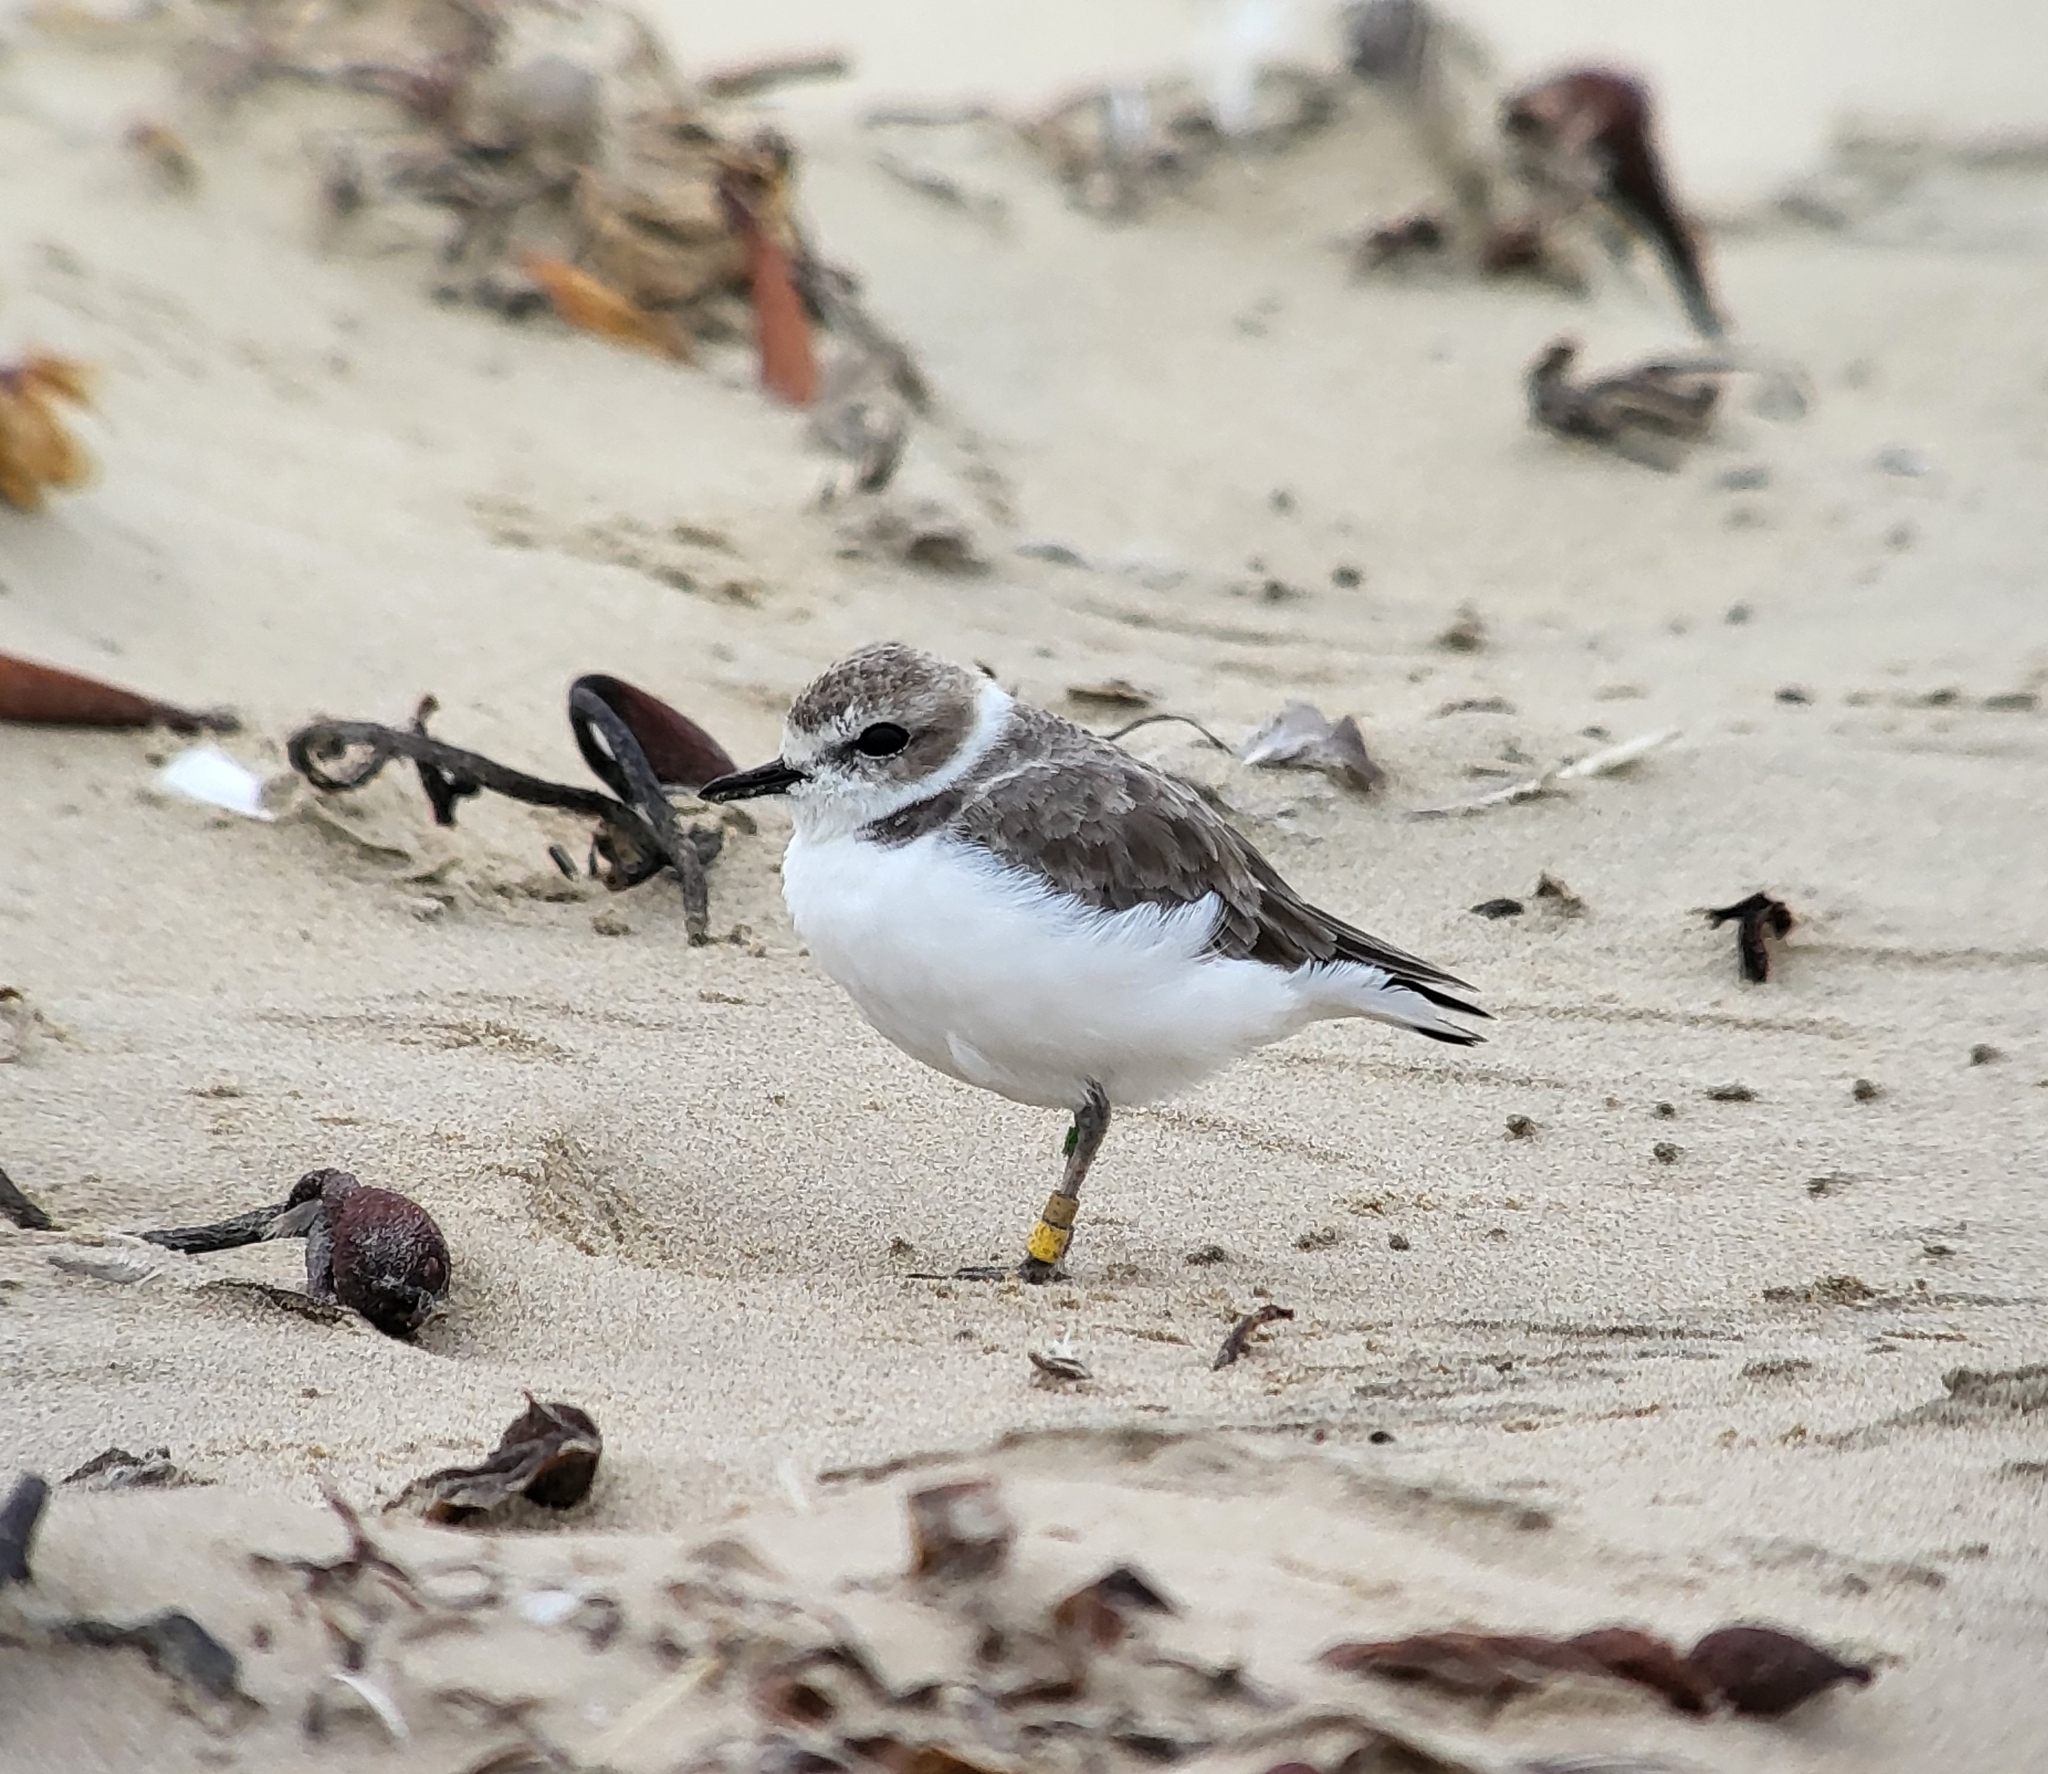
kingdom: Animalia
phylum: Chordata
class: Aves
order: Charadriiformes
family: Charadriidae
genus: Anarhynchus
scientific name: Anarhynchus
